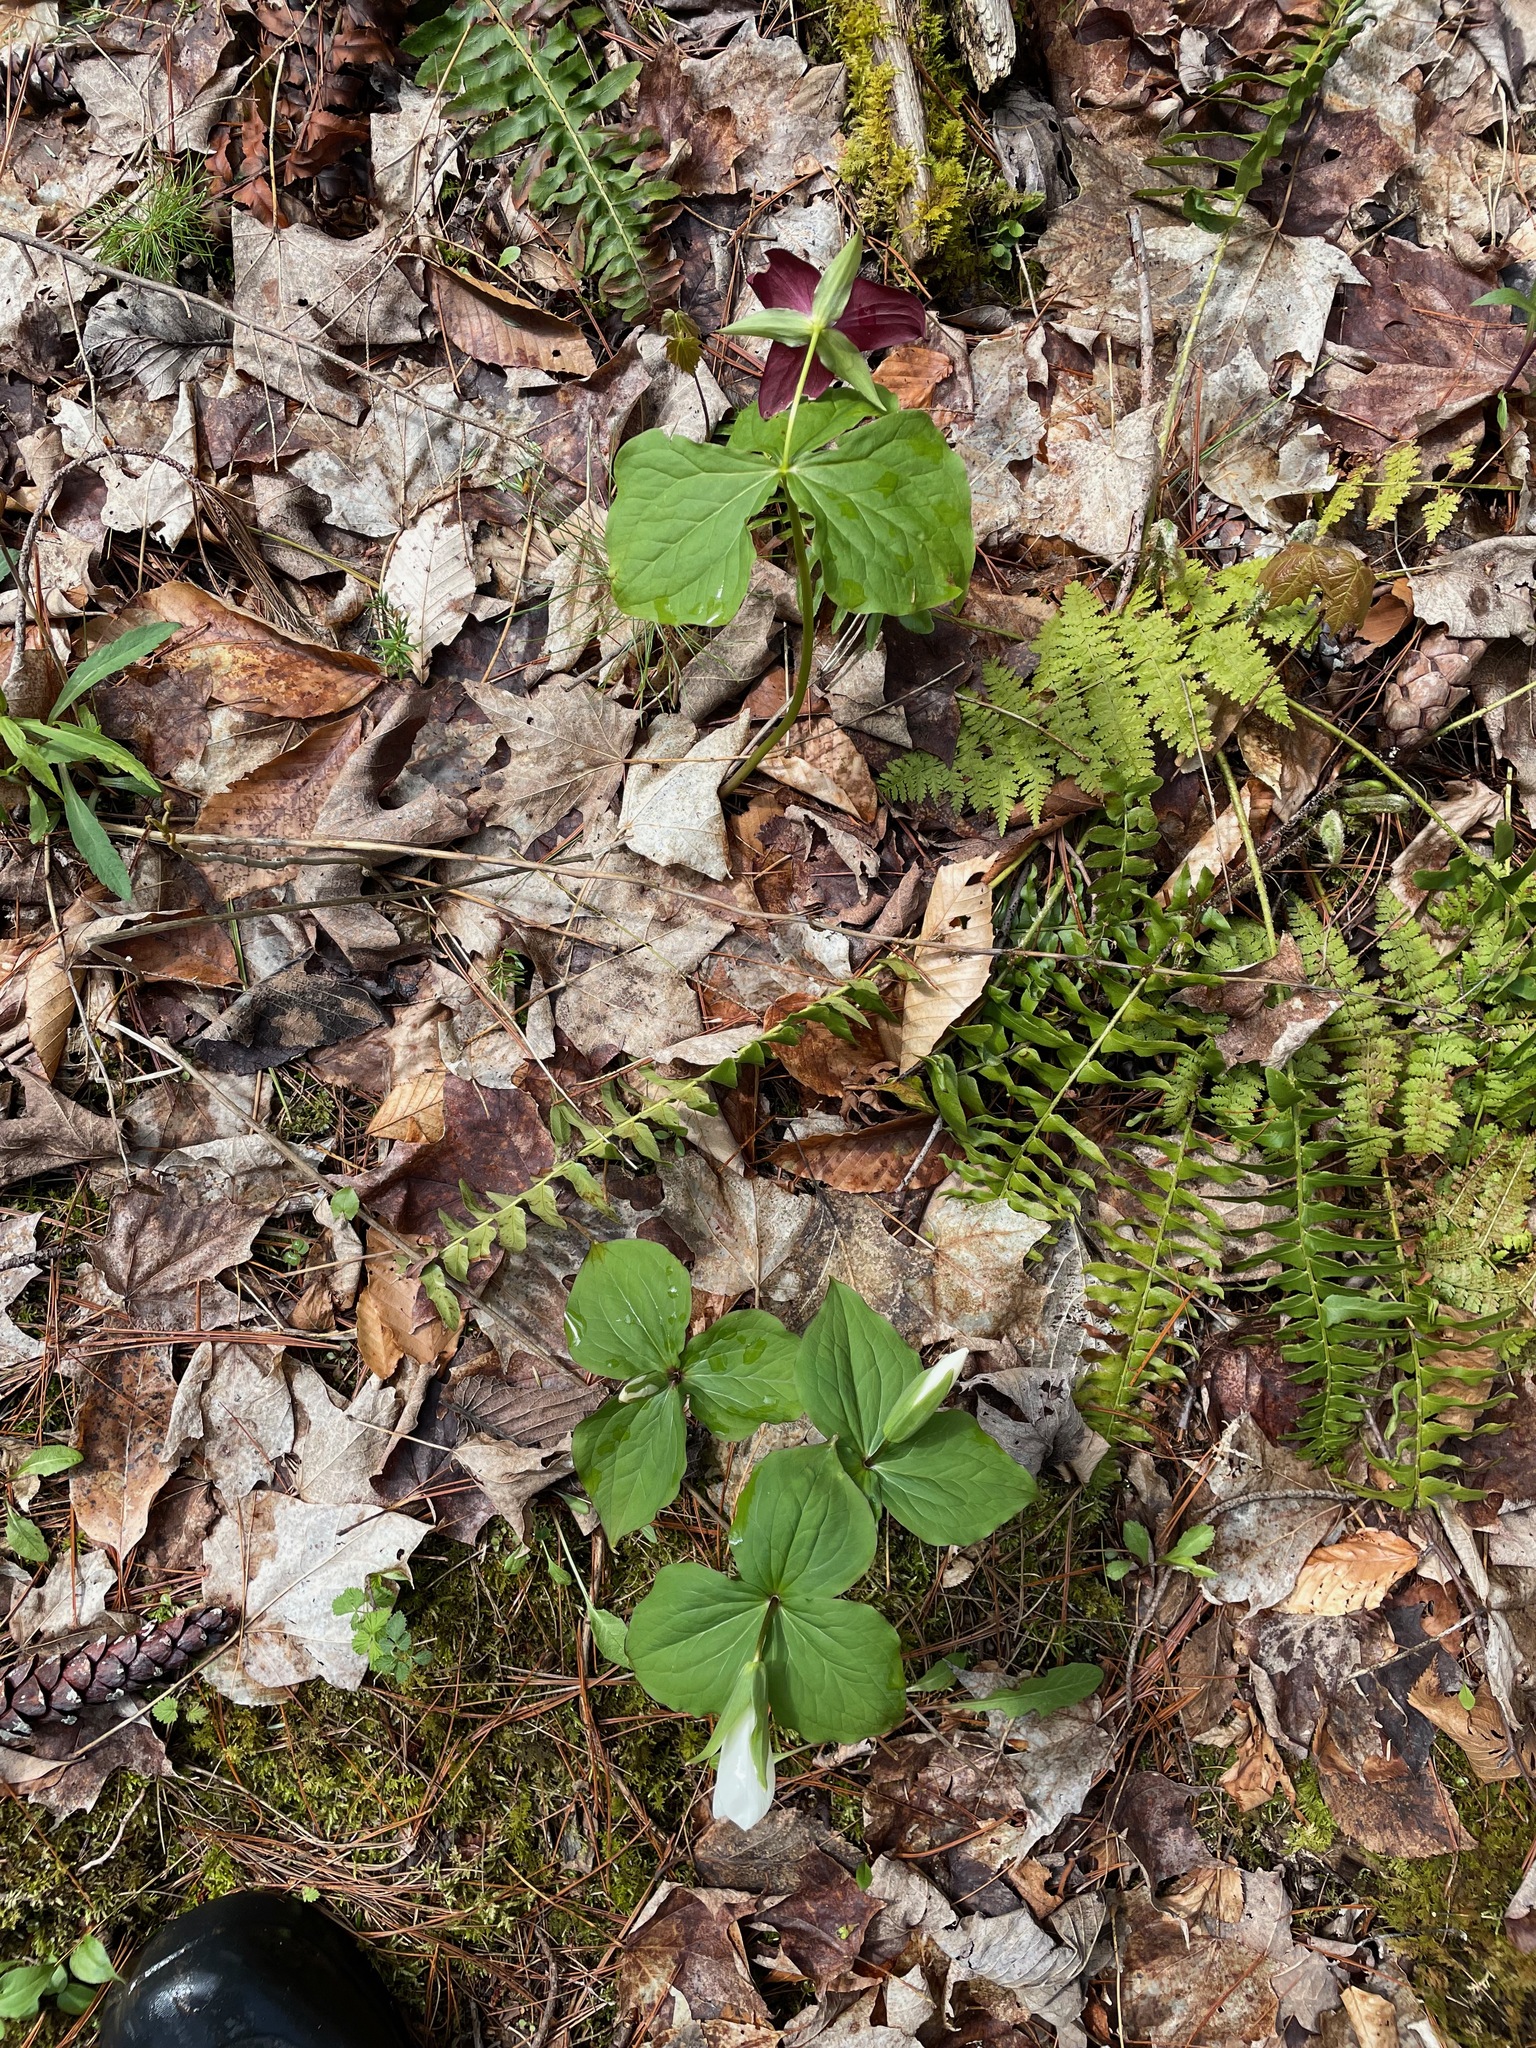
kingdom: Plantae
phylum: Tracheophyta
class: Liliopsida
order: Liliales
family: Melanthiaceae
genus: Trillium
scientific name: Trillium grandiflorum
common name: Great white trillium
